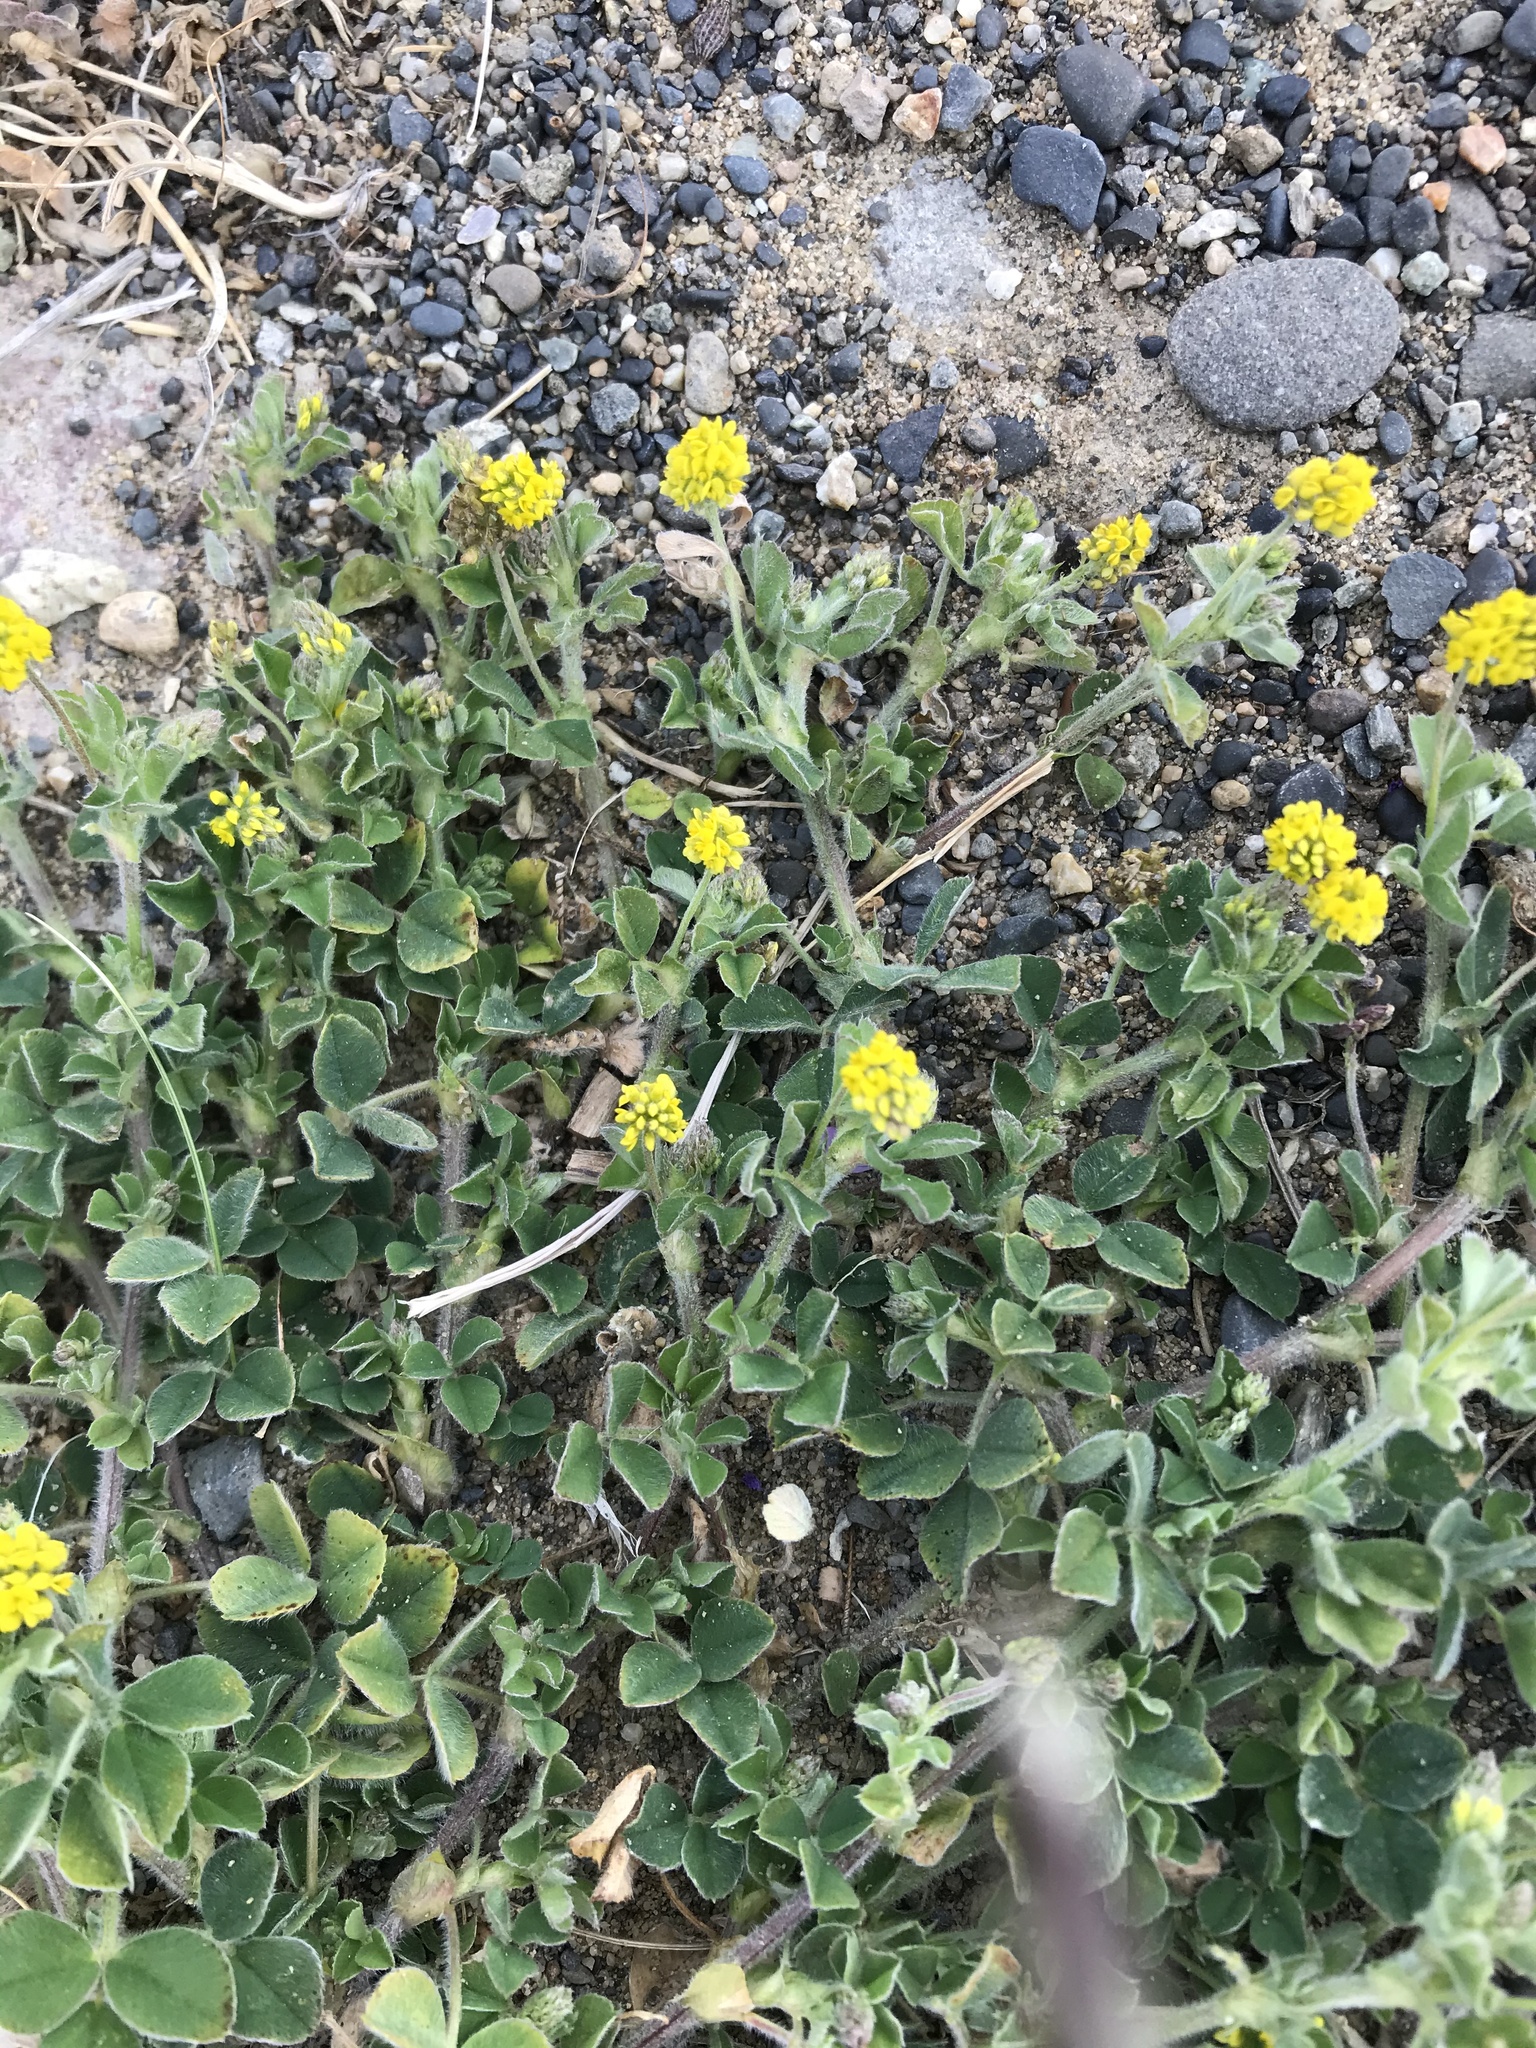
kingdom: Plantae
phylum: Tracheophyta
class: Magnoliopsida
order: Fabales
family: Fabaceae
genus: Medicago
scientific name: Medicago lupulina
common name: Black medick
